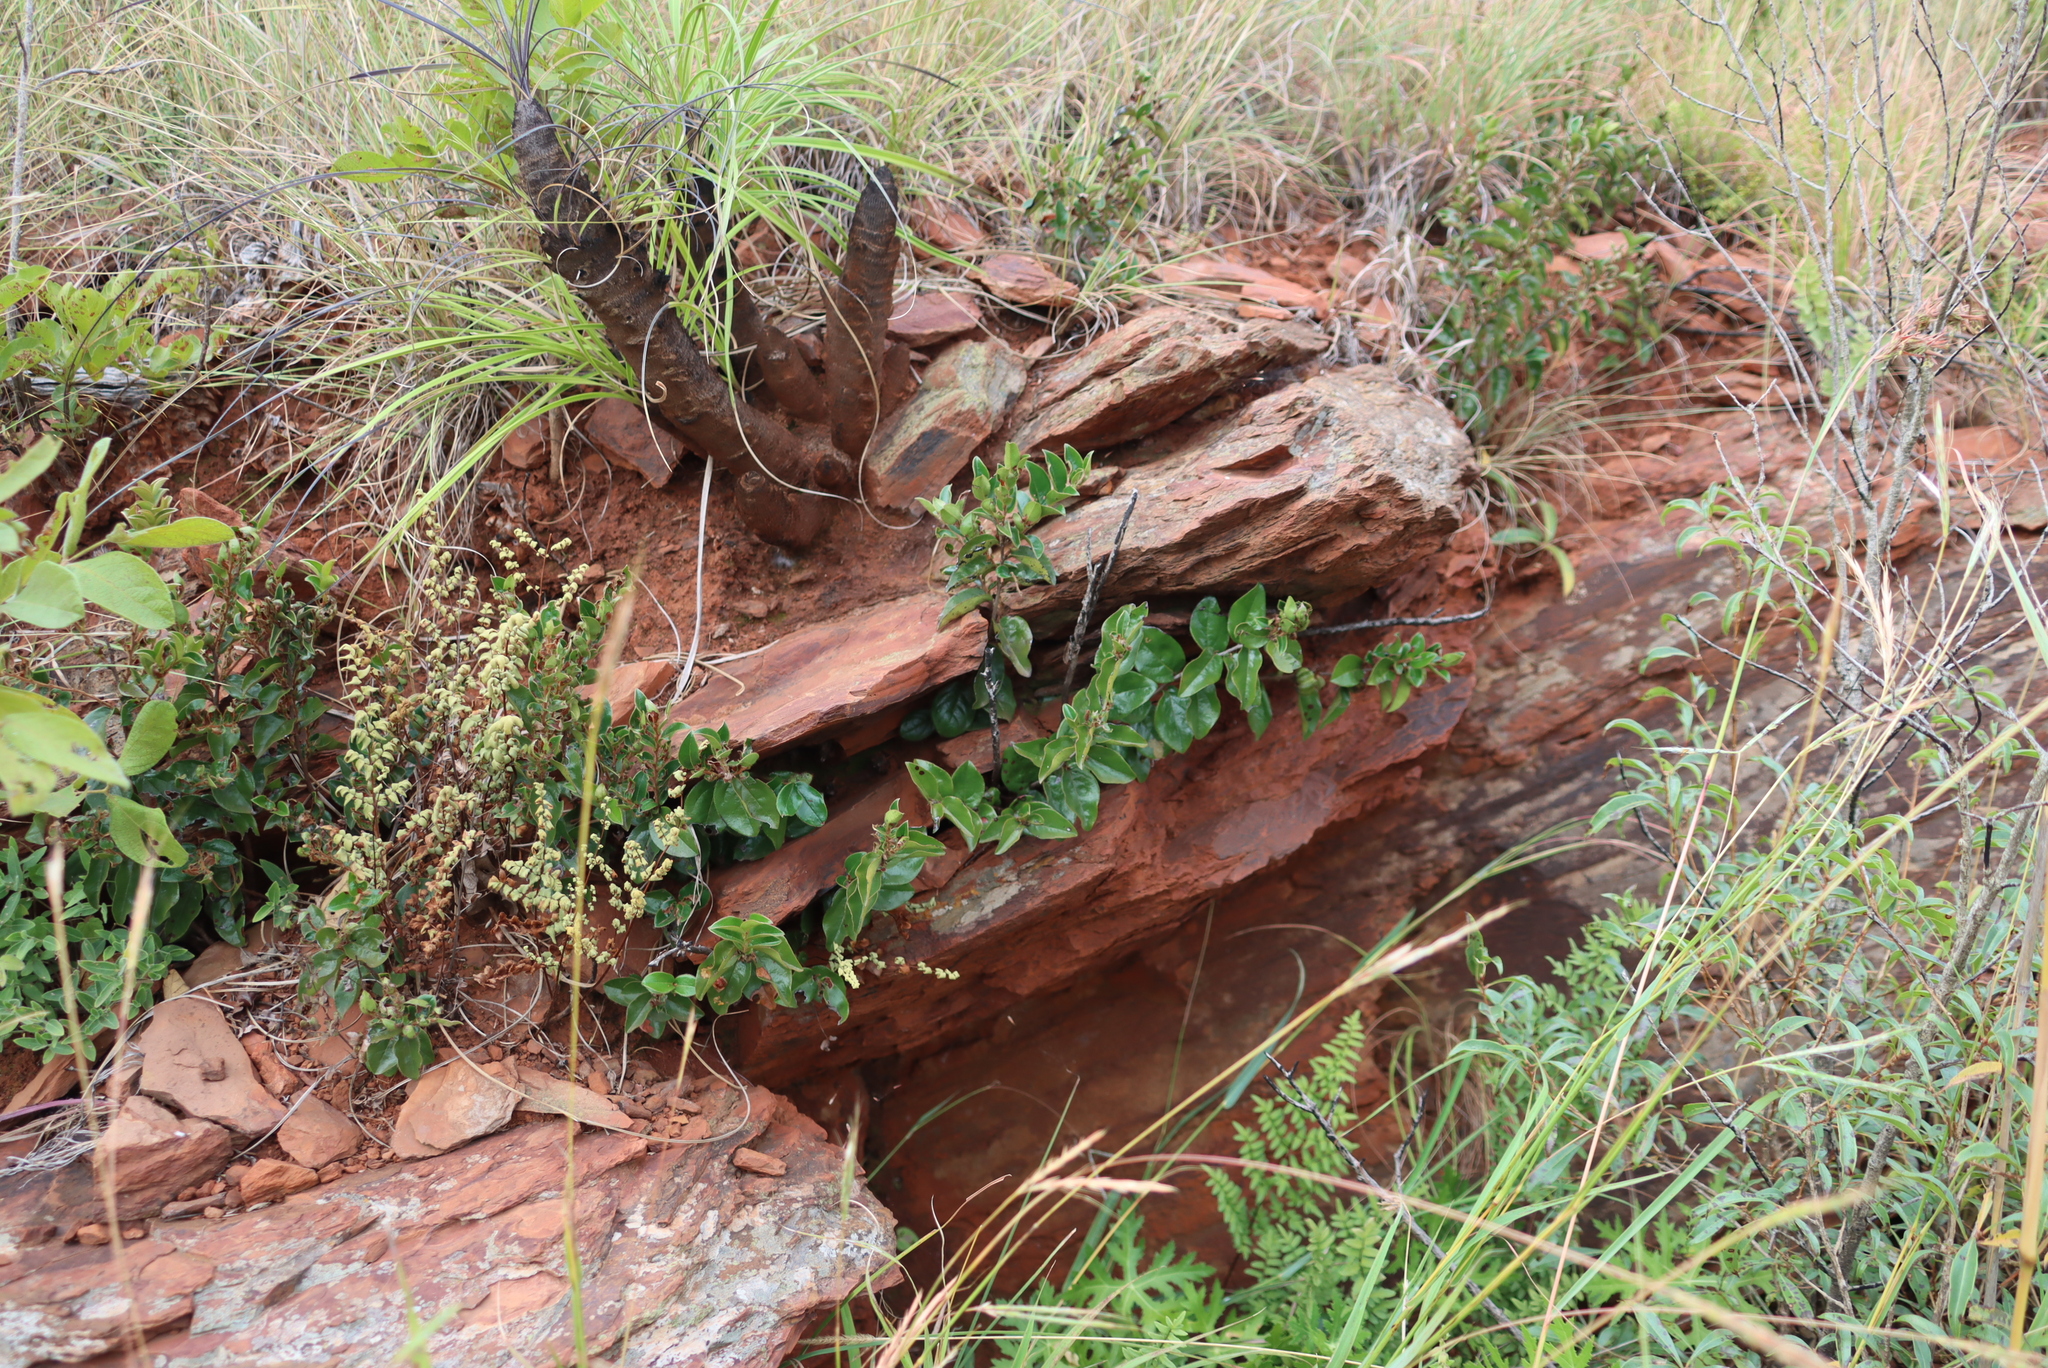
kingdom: Plantae
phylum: Tracheophyta
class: Magnoliopsida
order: Ericales
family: Ebenaceae
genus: Diospyros
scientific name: Diospyros whyteana
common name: Bladder-nut
